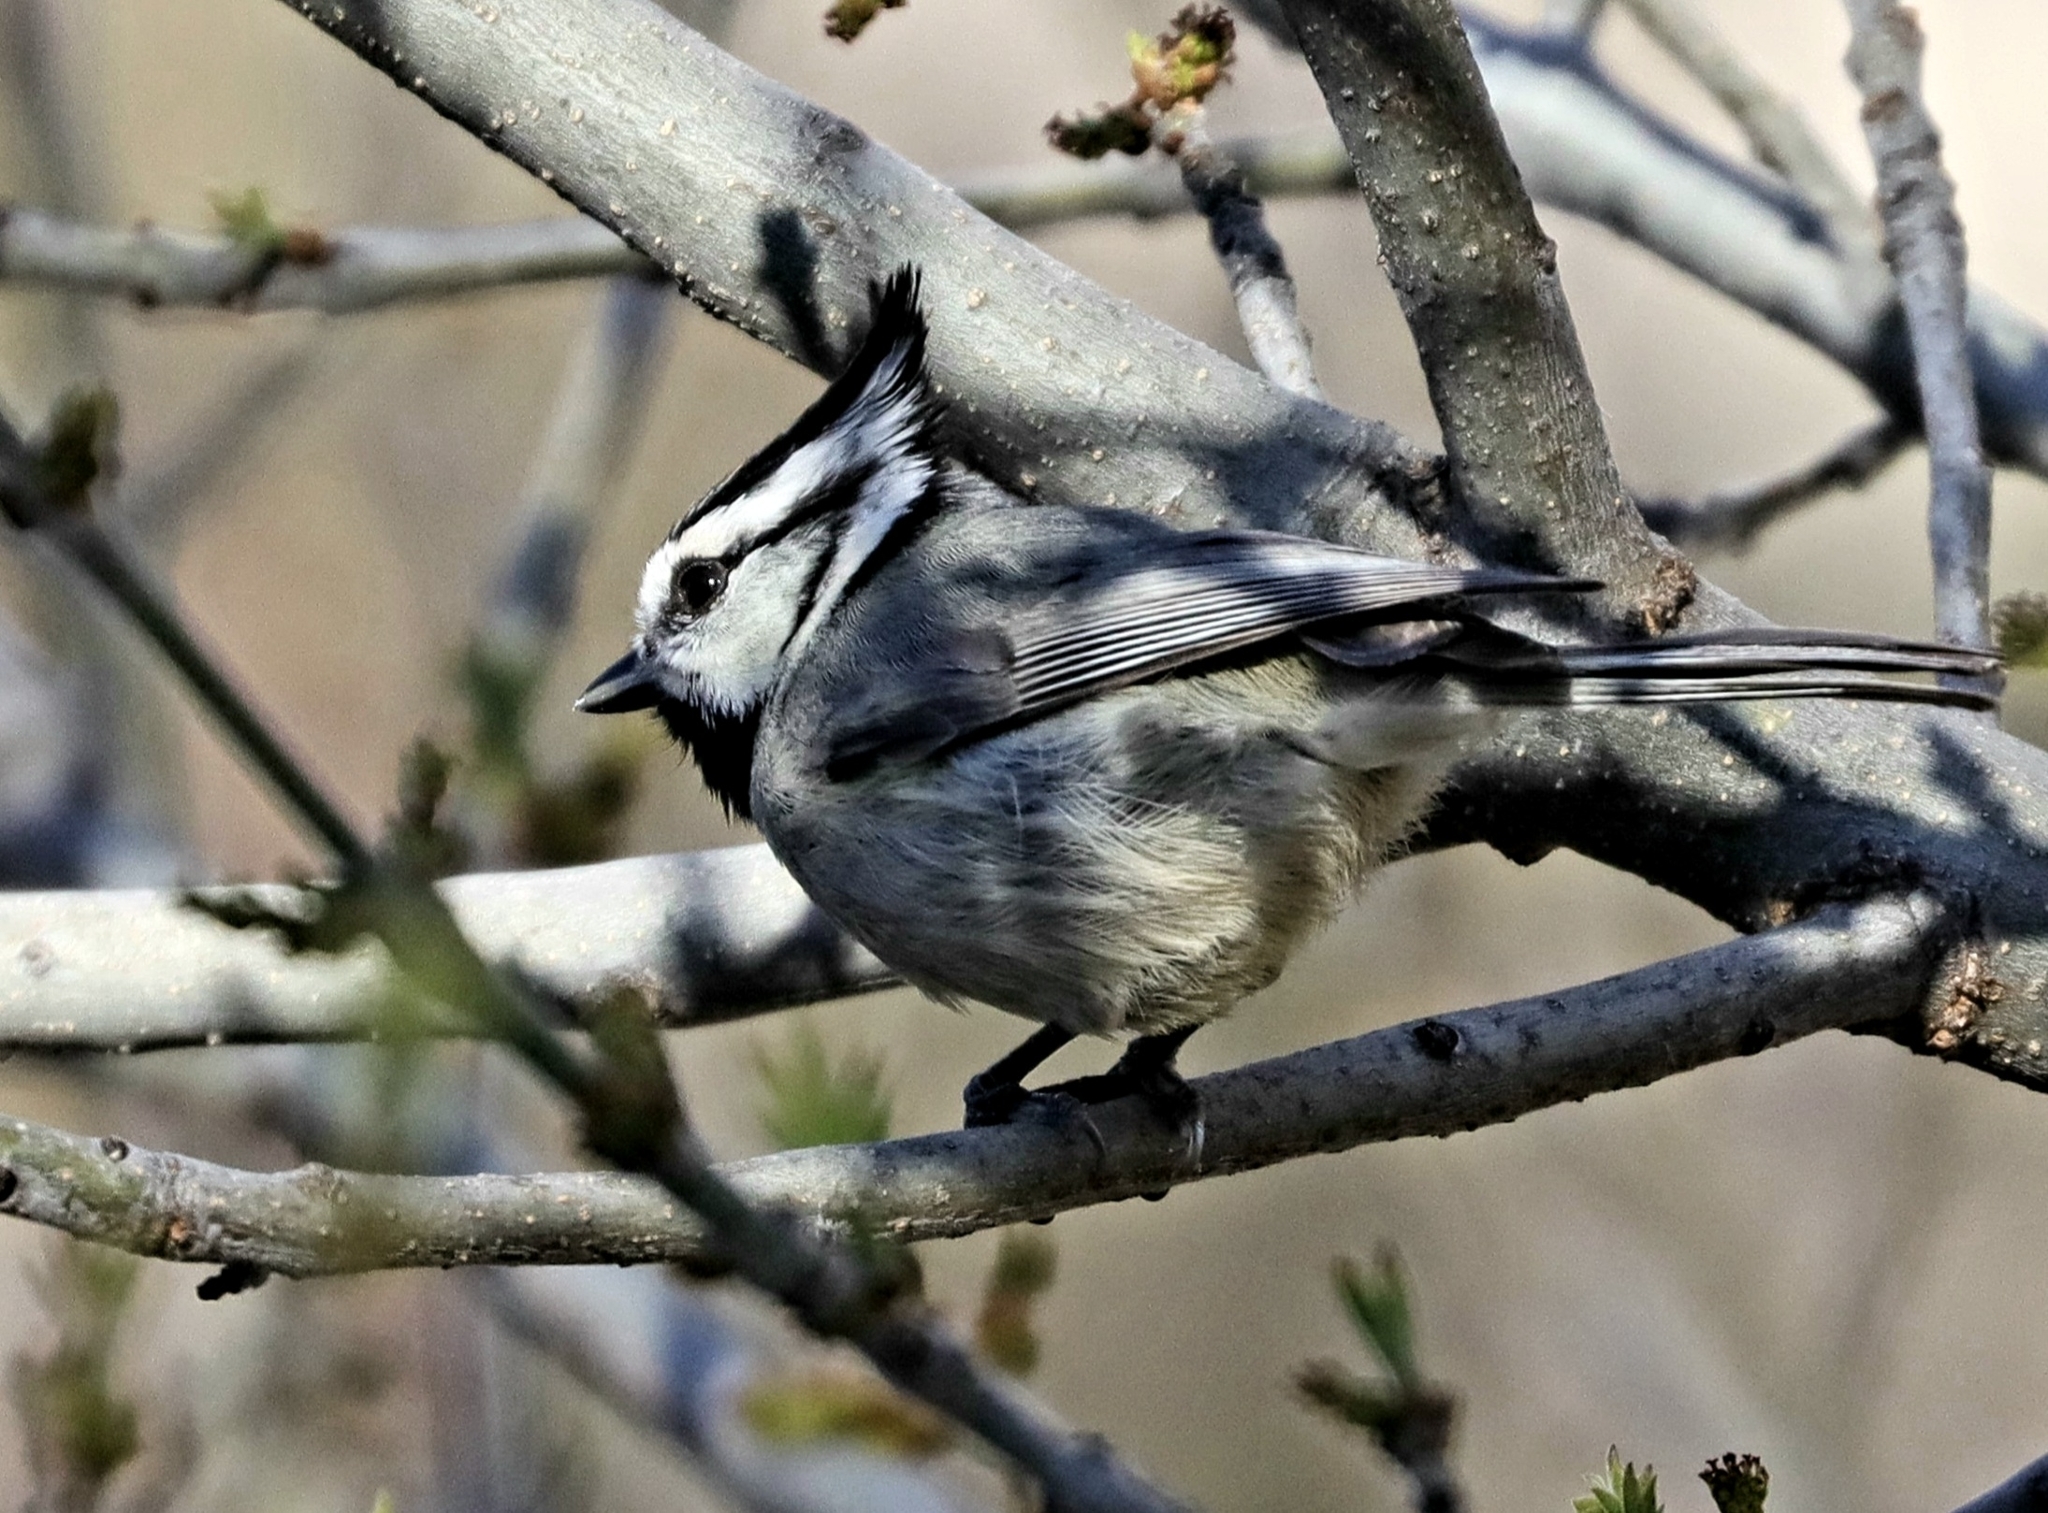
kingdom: Animalia
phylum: Chordata
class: Aves
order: Passeriformes
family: Paridae
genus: Baeolophus
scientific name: Baeolophus wollweberi
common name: Bridled titmouse
